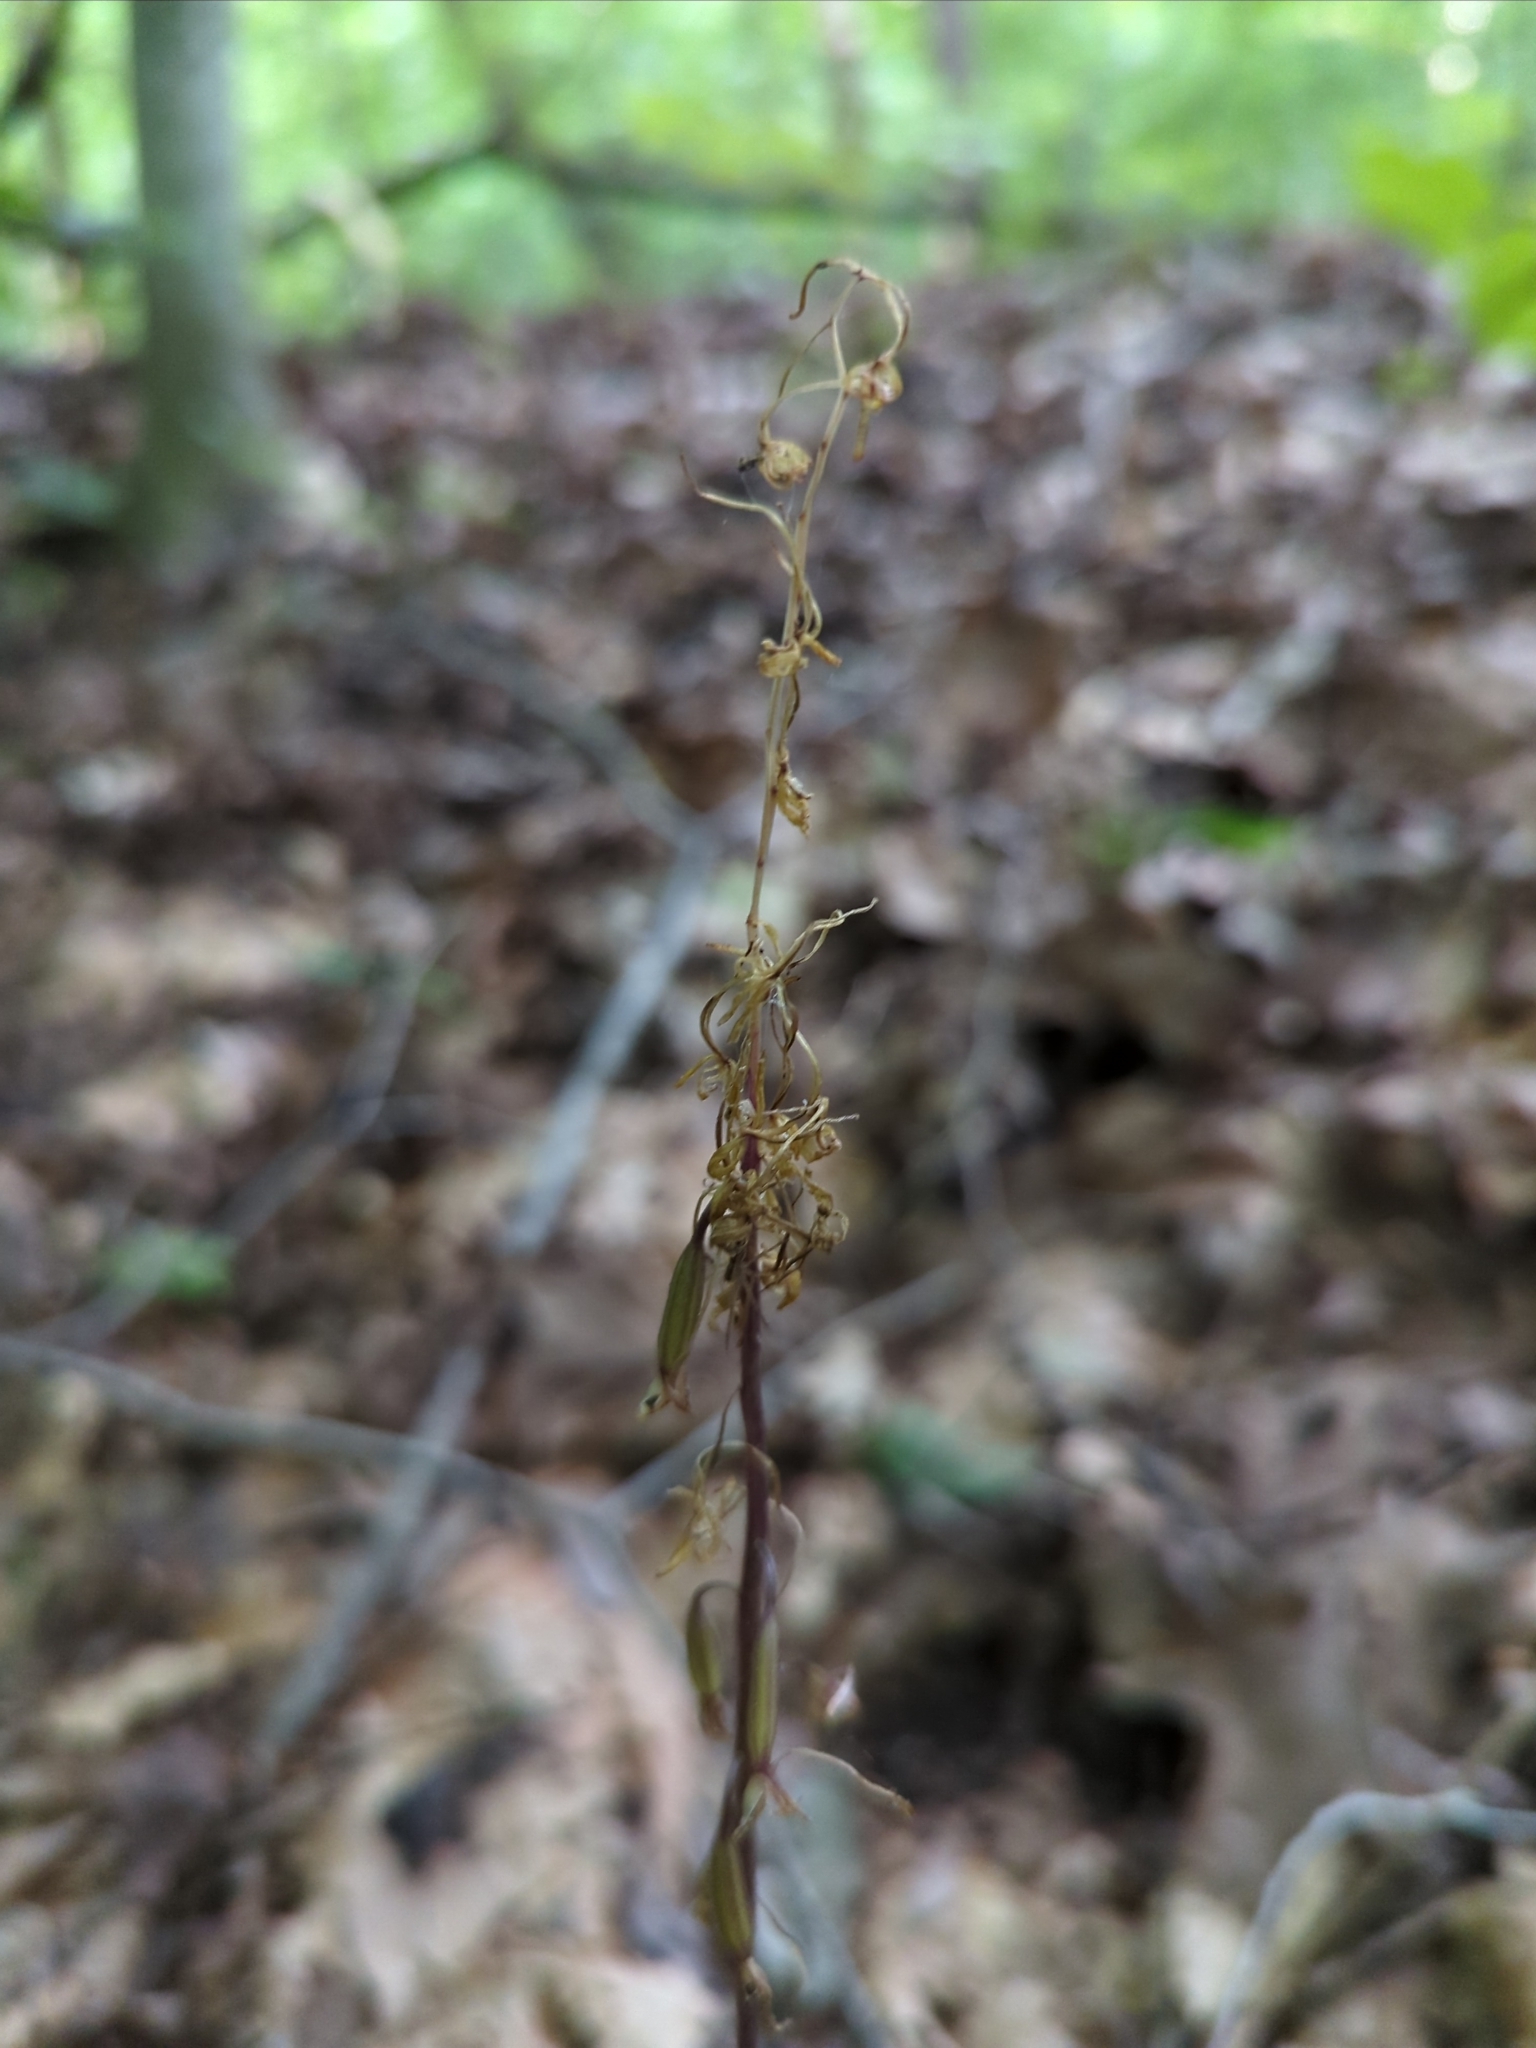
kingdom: Plantae
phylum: Tracheophyta
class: Liliopsida
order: Asparagales
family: Orchidaceae
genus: Tipularia
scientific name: Tipularia discolor
